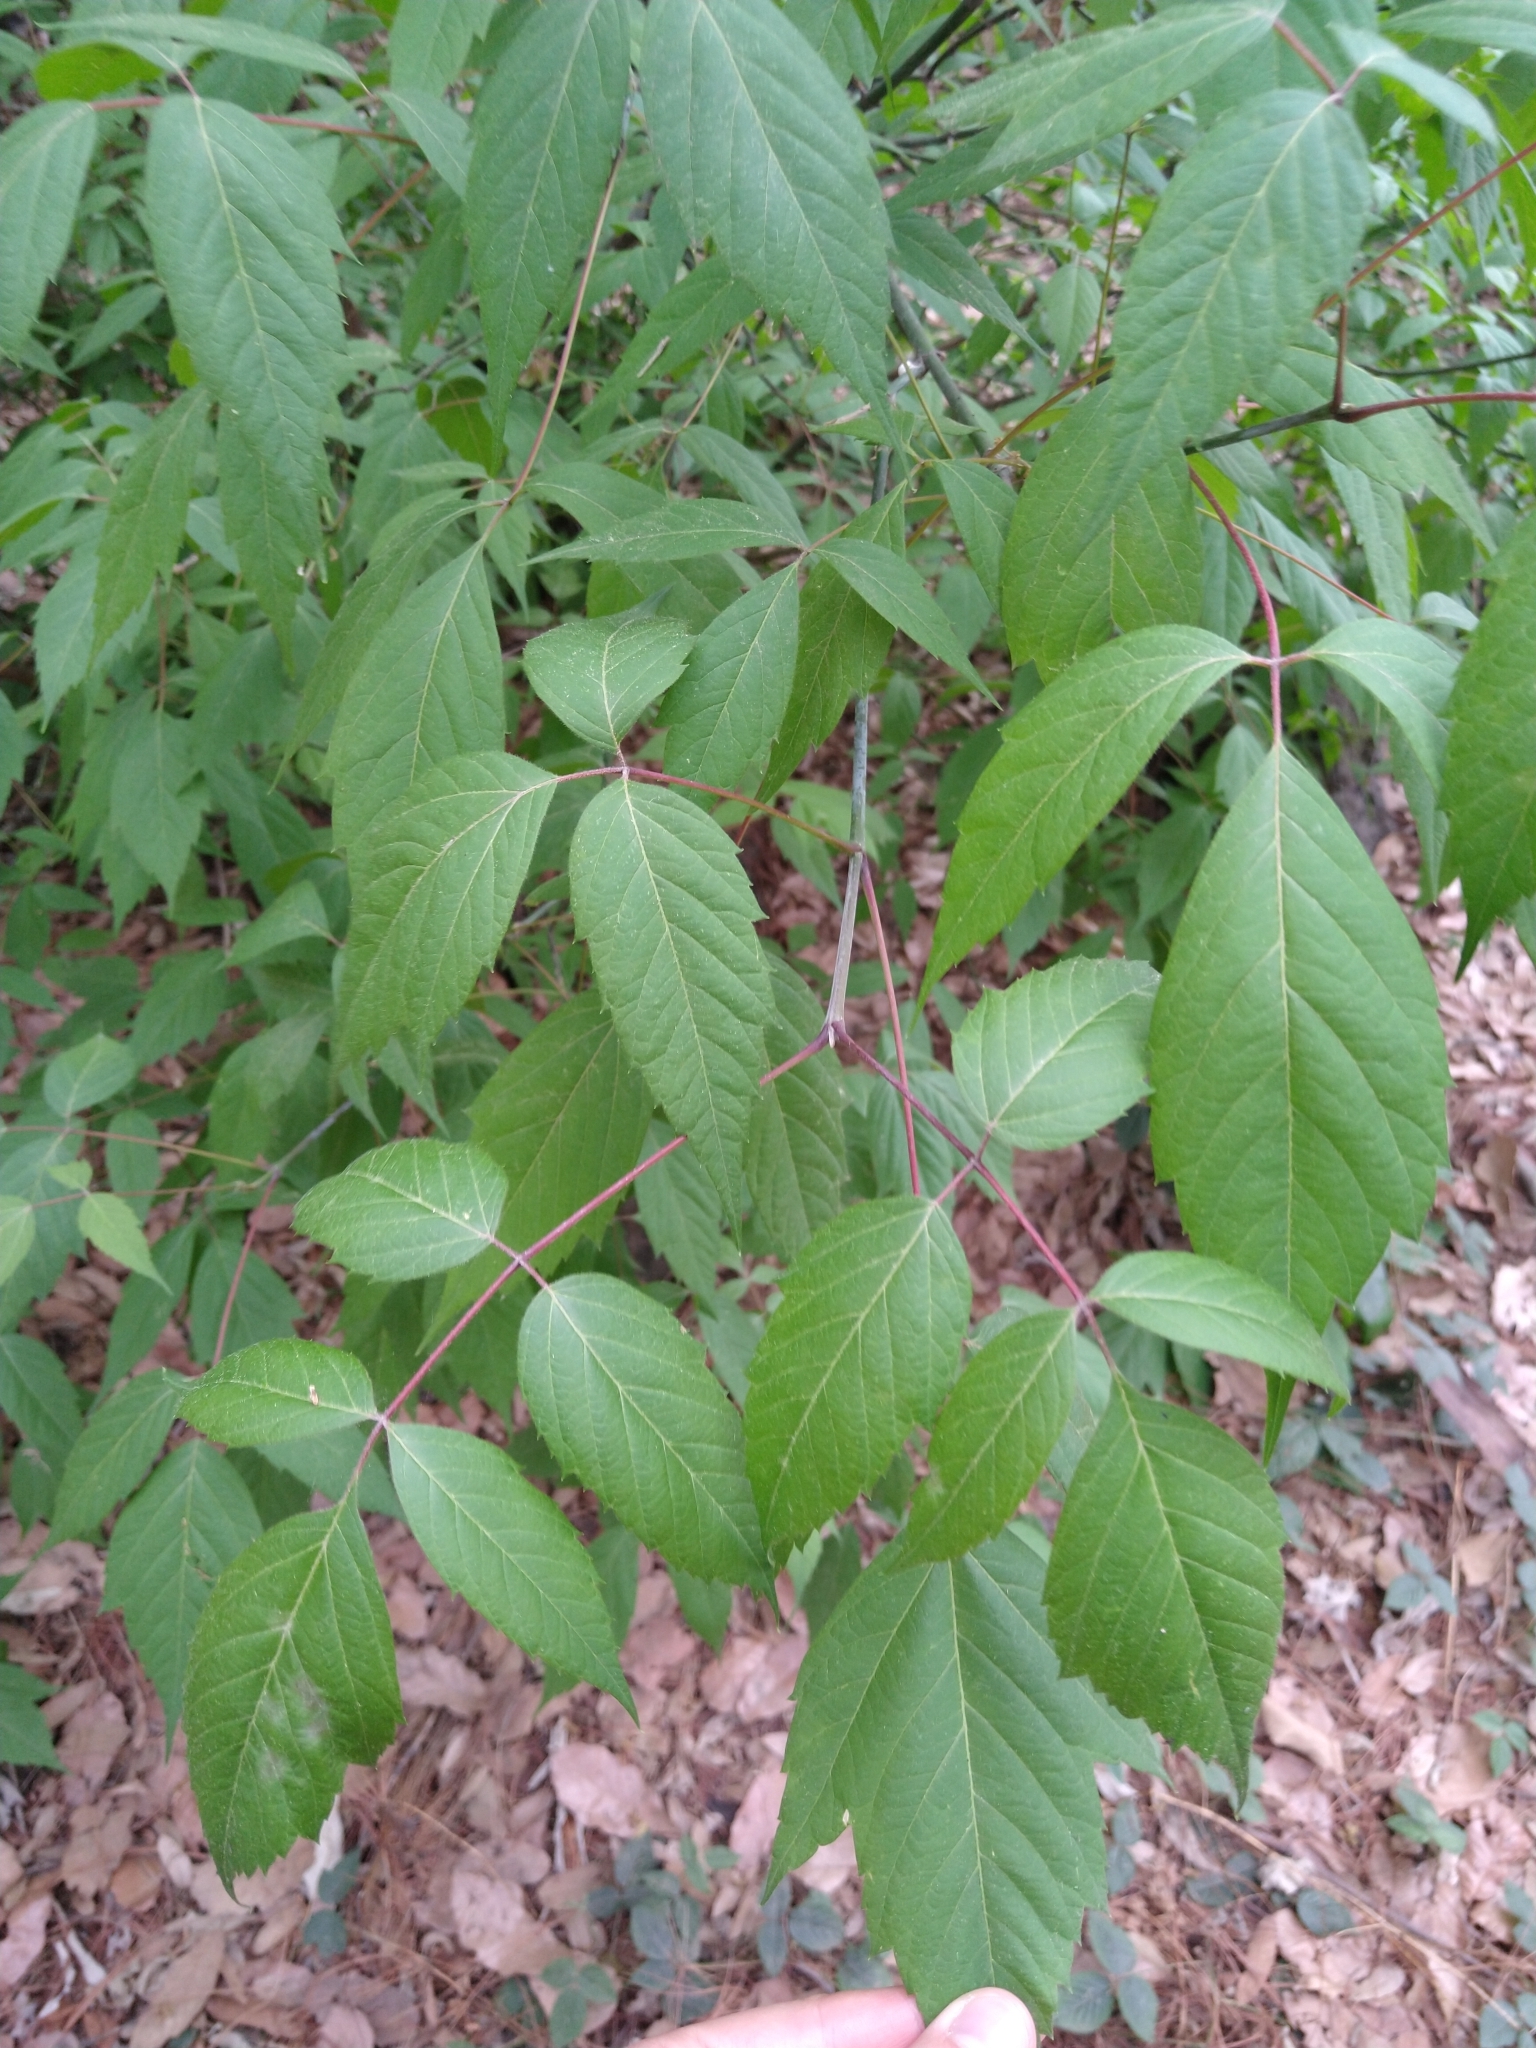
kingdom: Plantae
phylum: Tracheophyta
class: Magnoliopsida
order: Sapindales
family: Sapindaceae
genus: Acer
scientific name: Acer negundo
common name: Ashleaf maple
